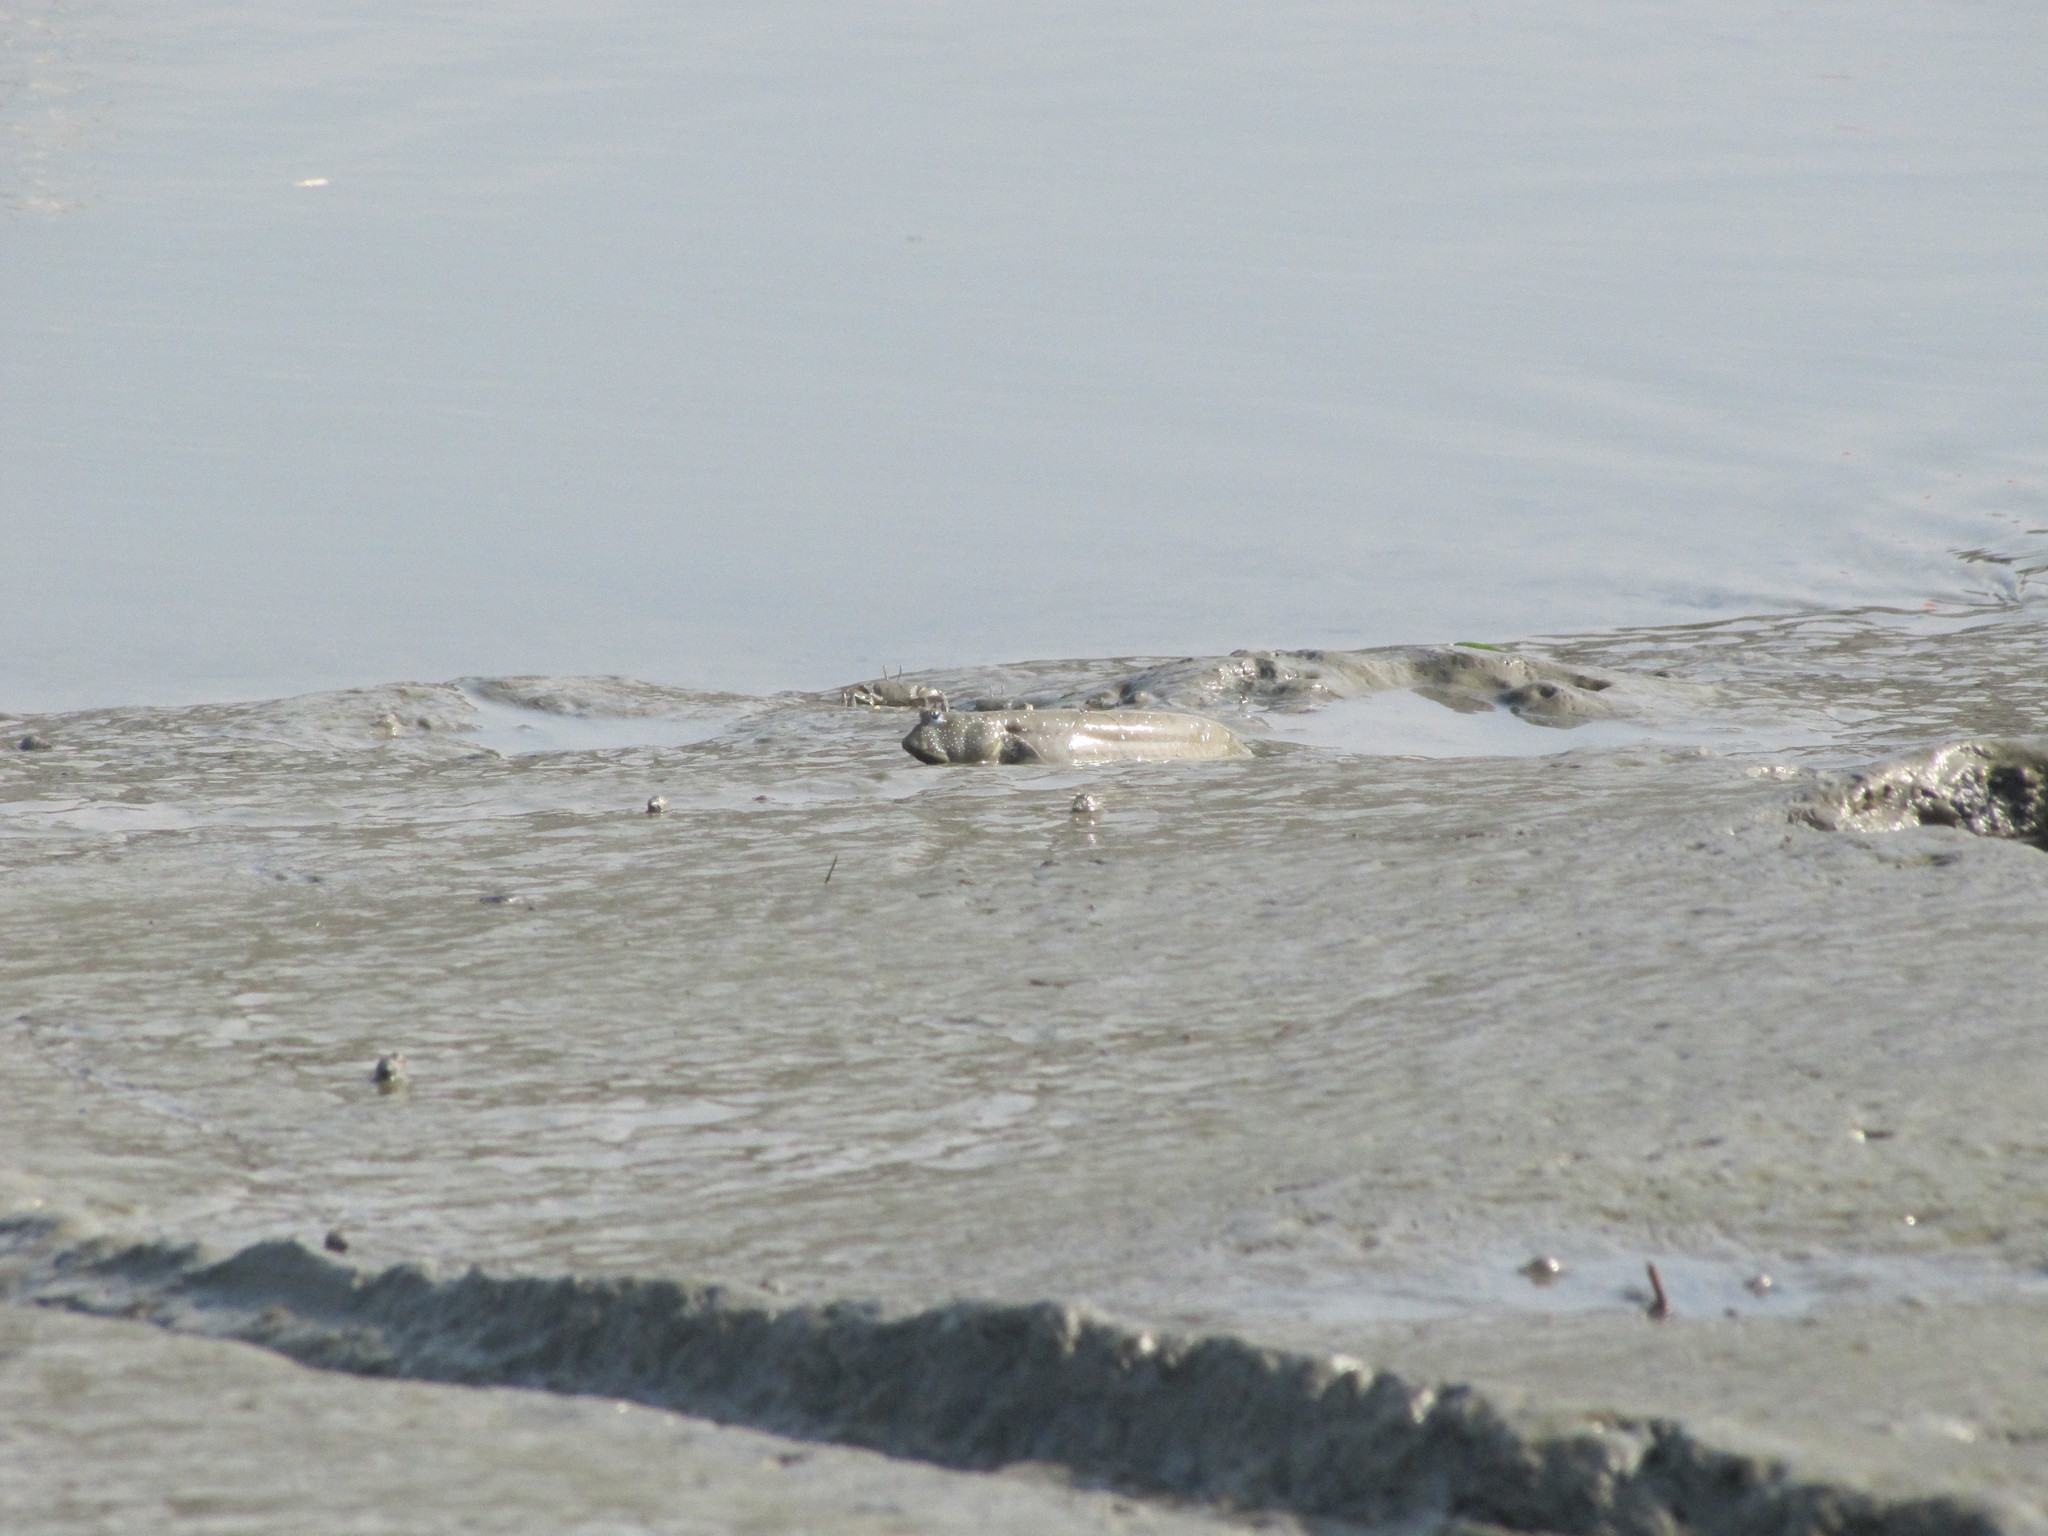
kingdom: Animalia
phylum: Chordata
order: Perciformes
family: Gobiidae
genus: Boleophthalmus
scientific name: Boleophthalmus pectinirostris
